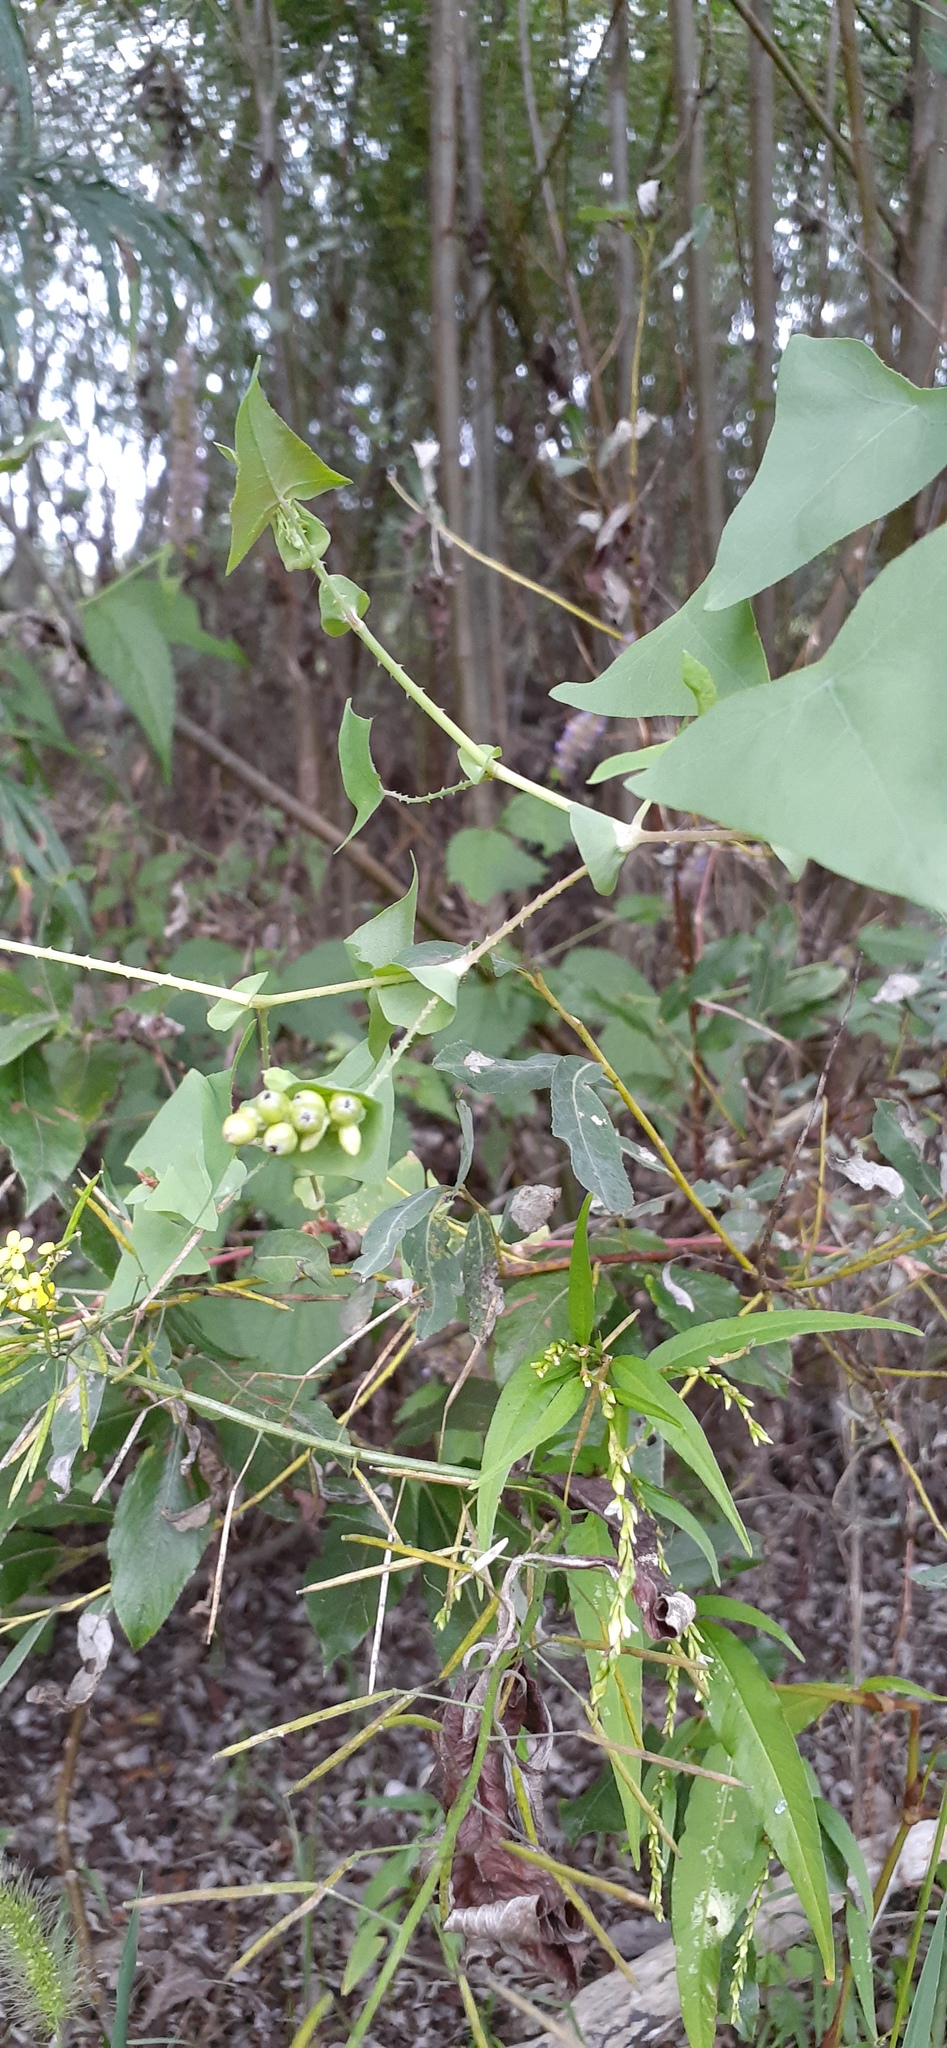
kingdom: Plantae
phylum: Tracheophyta
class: Magnoliopsida
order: Caryophyllales
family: Polygonaceae
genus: Persicaria
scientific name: Persicaria perfoliata
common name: Asiatic tearthumb
